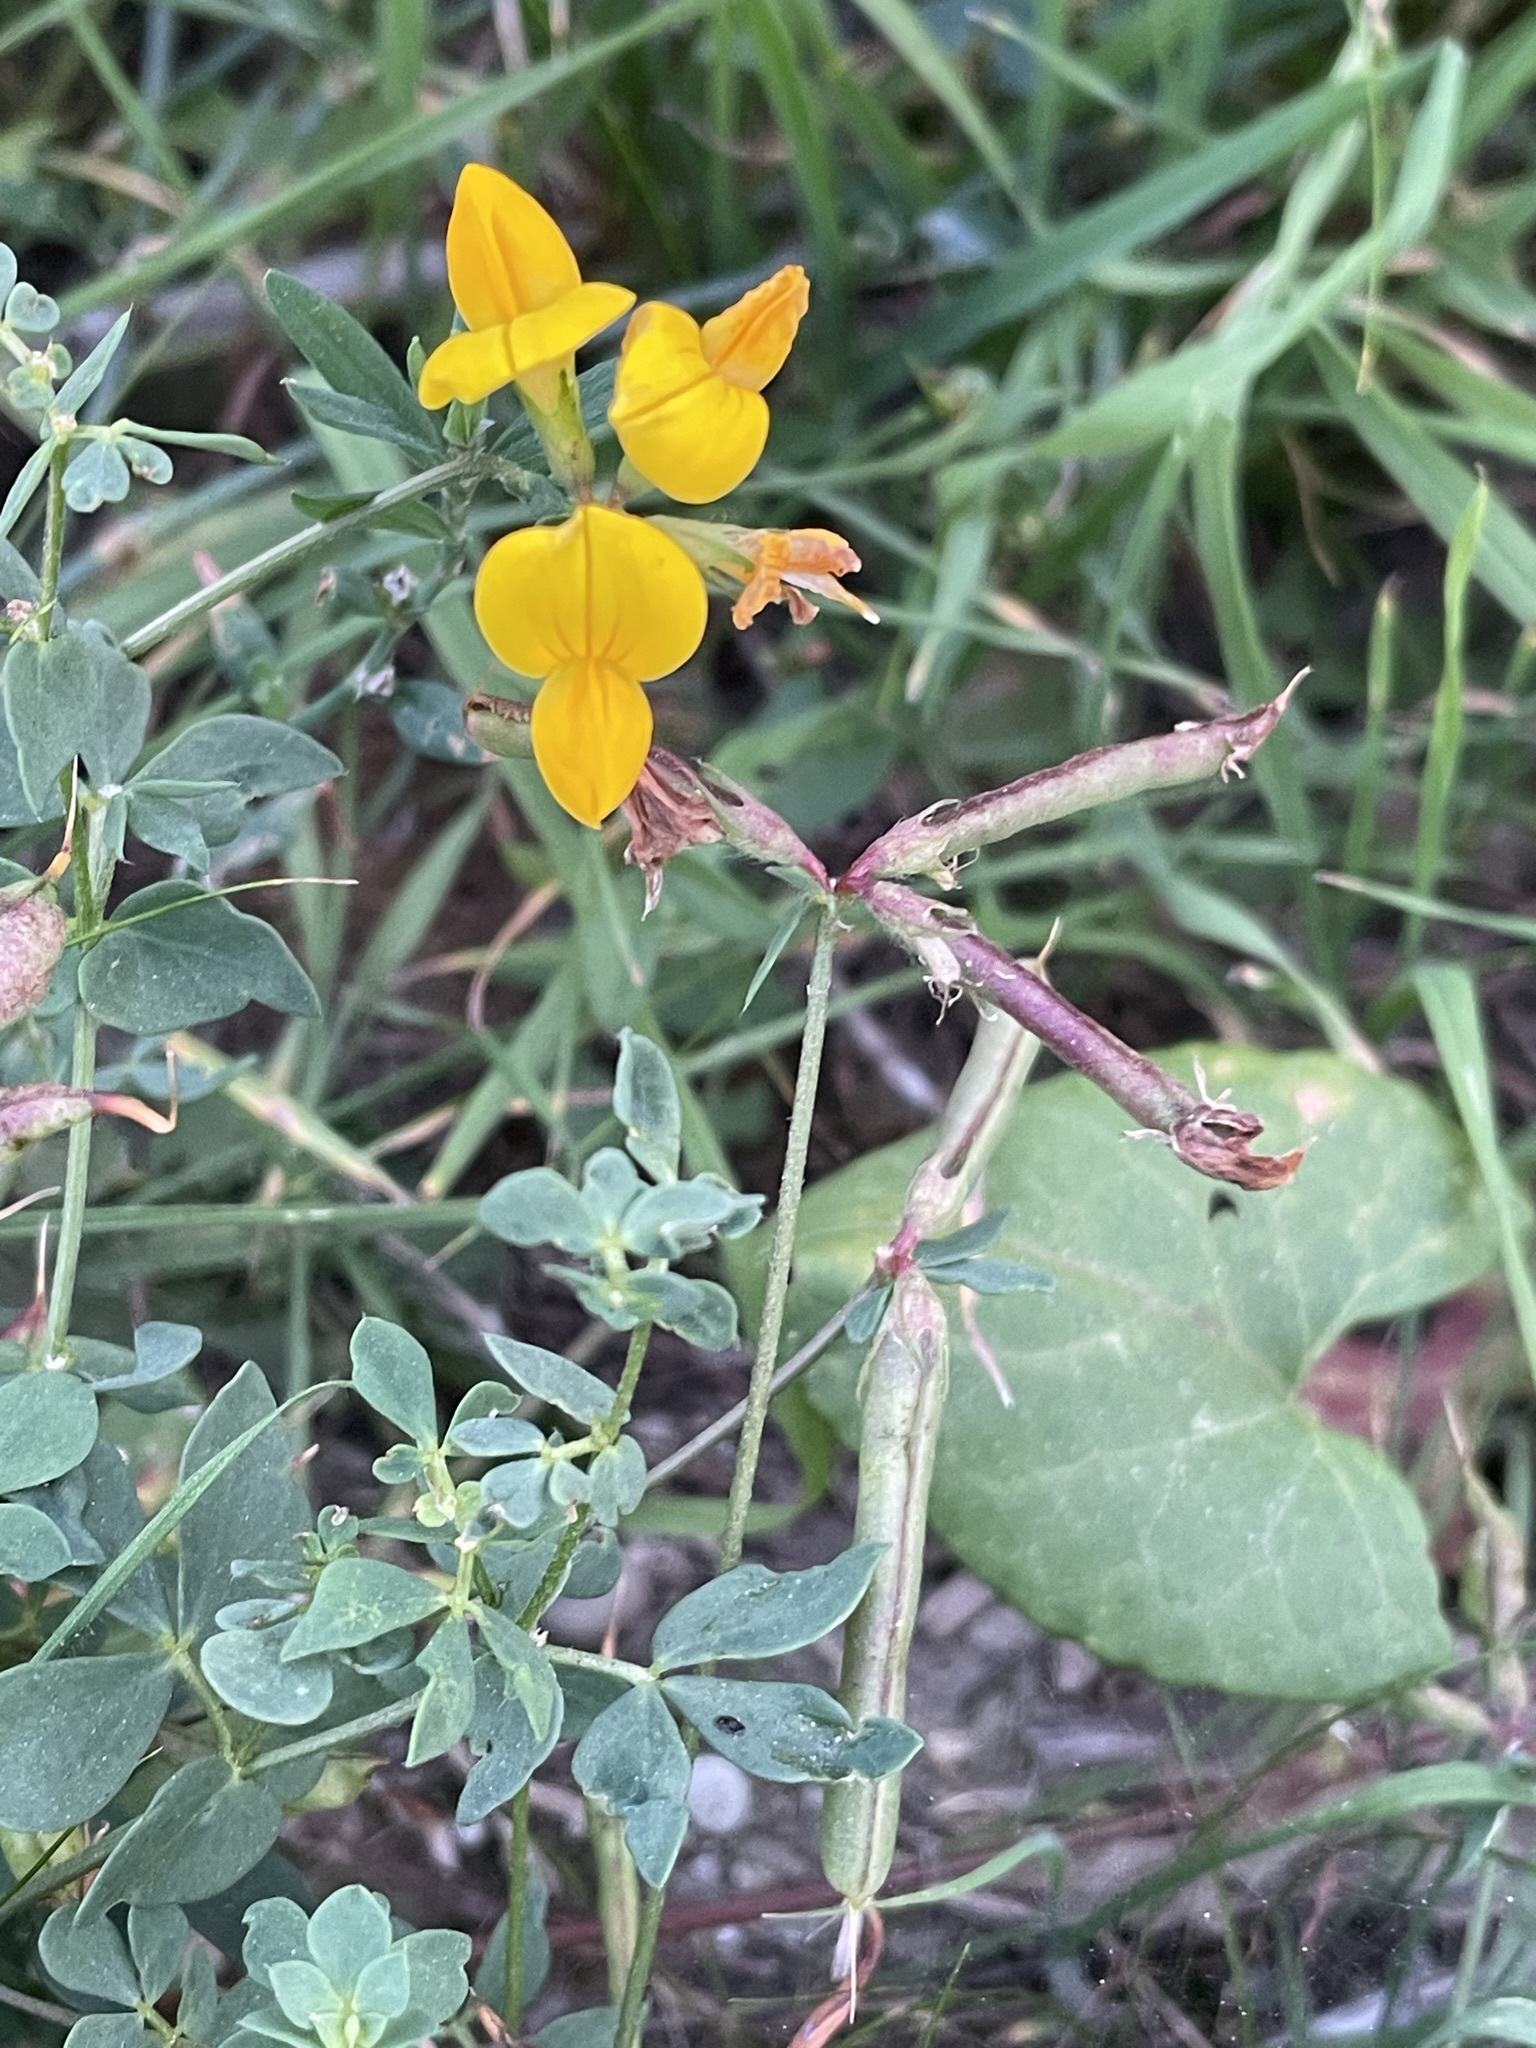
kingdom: Plantae
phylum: Tracheophyta
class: Magnoliopsida
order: Fabales
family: Fabaceae
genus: Lotus
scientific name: Lotus corniculatus
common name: Common bird's-foot-trefoil
